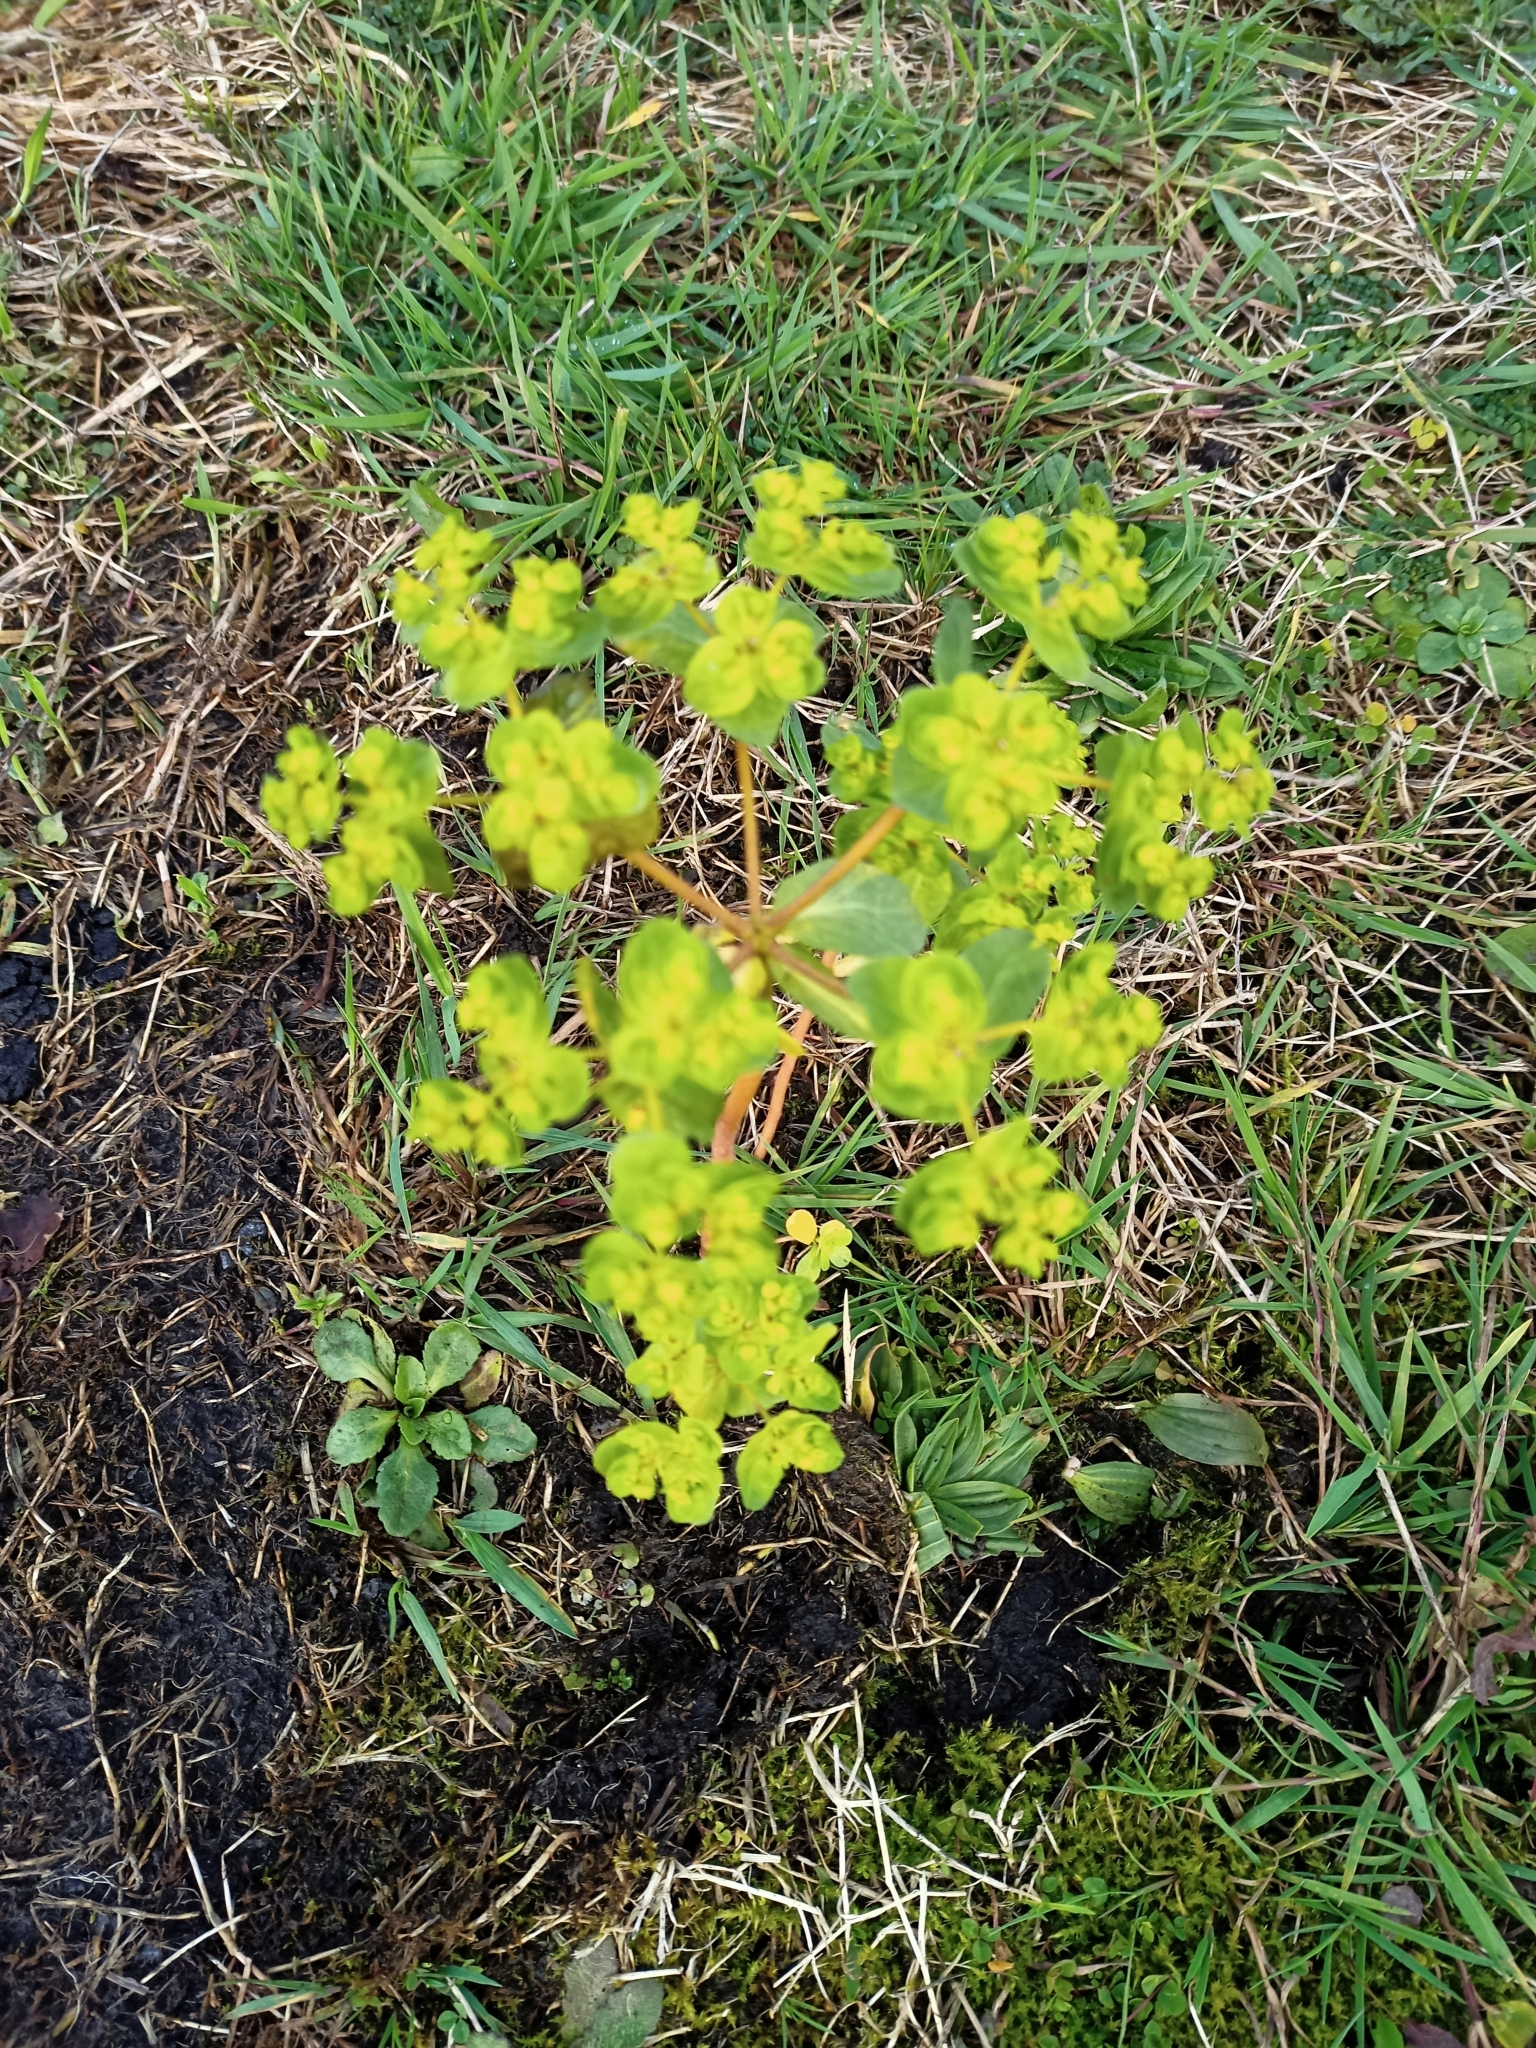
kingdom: Plantae
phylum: Tracheophyta
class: Magnoliopsida
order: Malpighiales
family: Euphorbiaceae
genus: Euphorbia
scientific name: Euphorbia helioscopia
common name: Sun spurge
